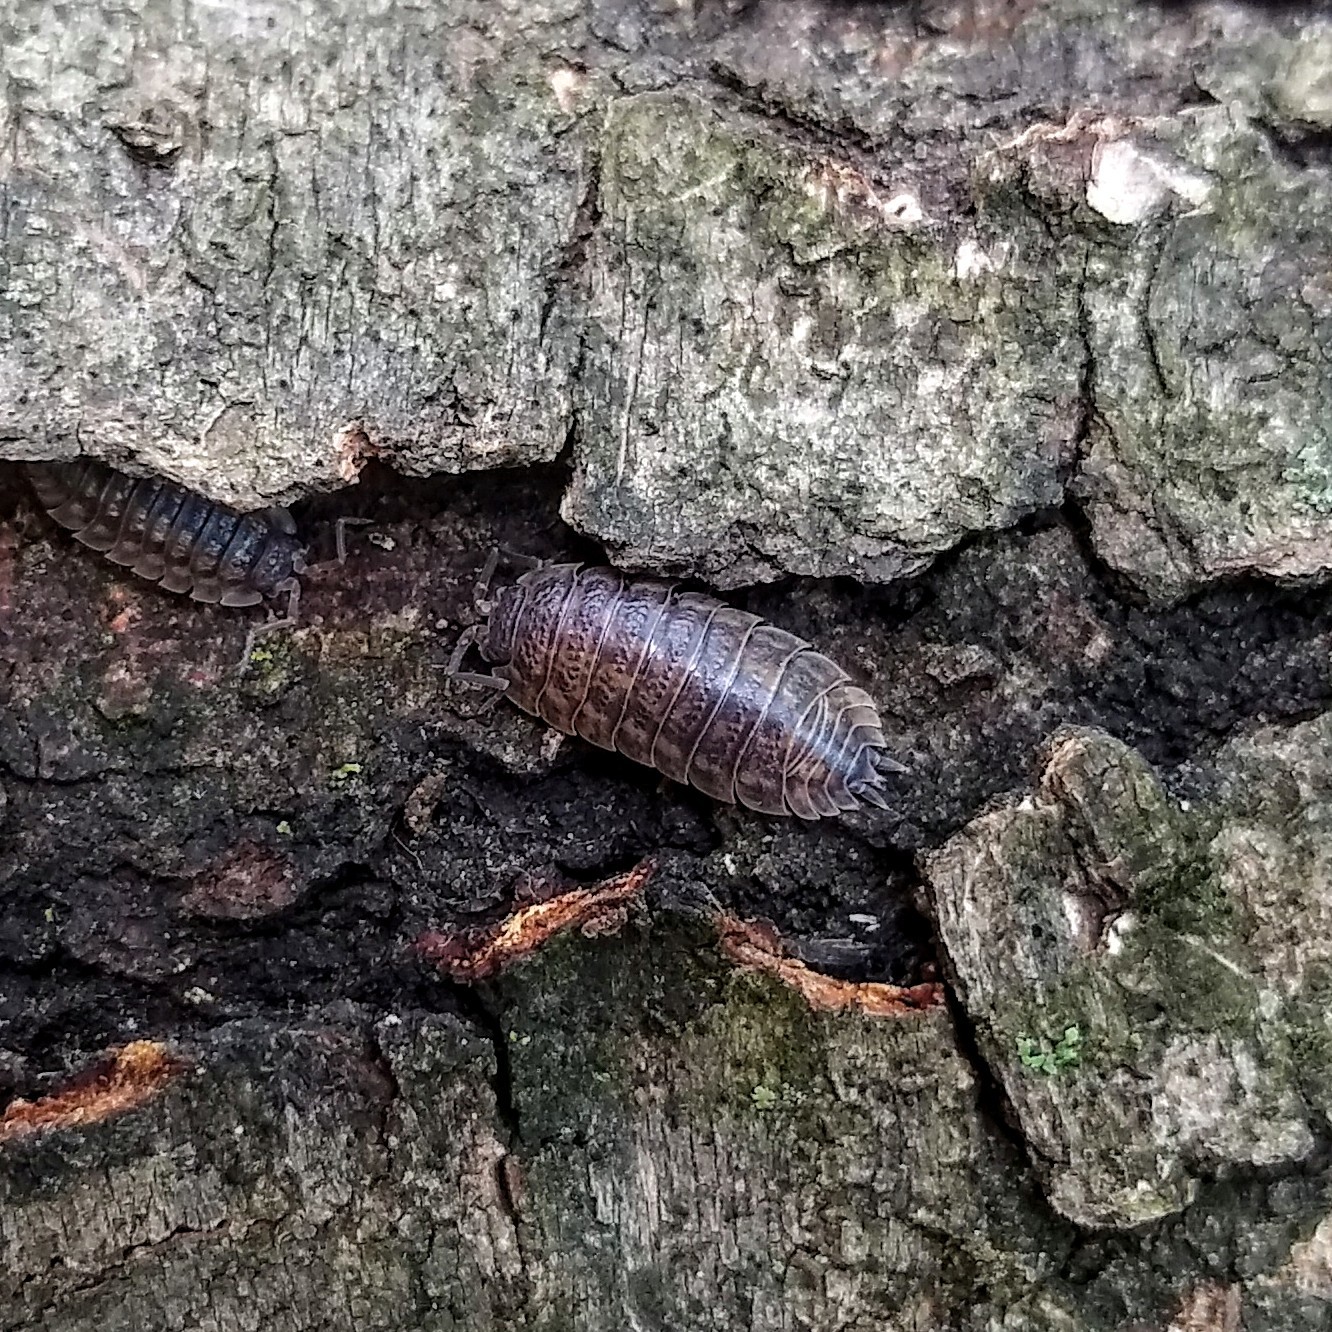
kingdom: Animalia
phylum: Arthropoda
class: Malacostraca
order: Isopoda
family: Trachelipodidae
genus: Trachelipus
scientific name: Trachelipus rathkii
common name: Isopod
